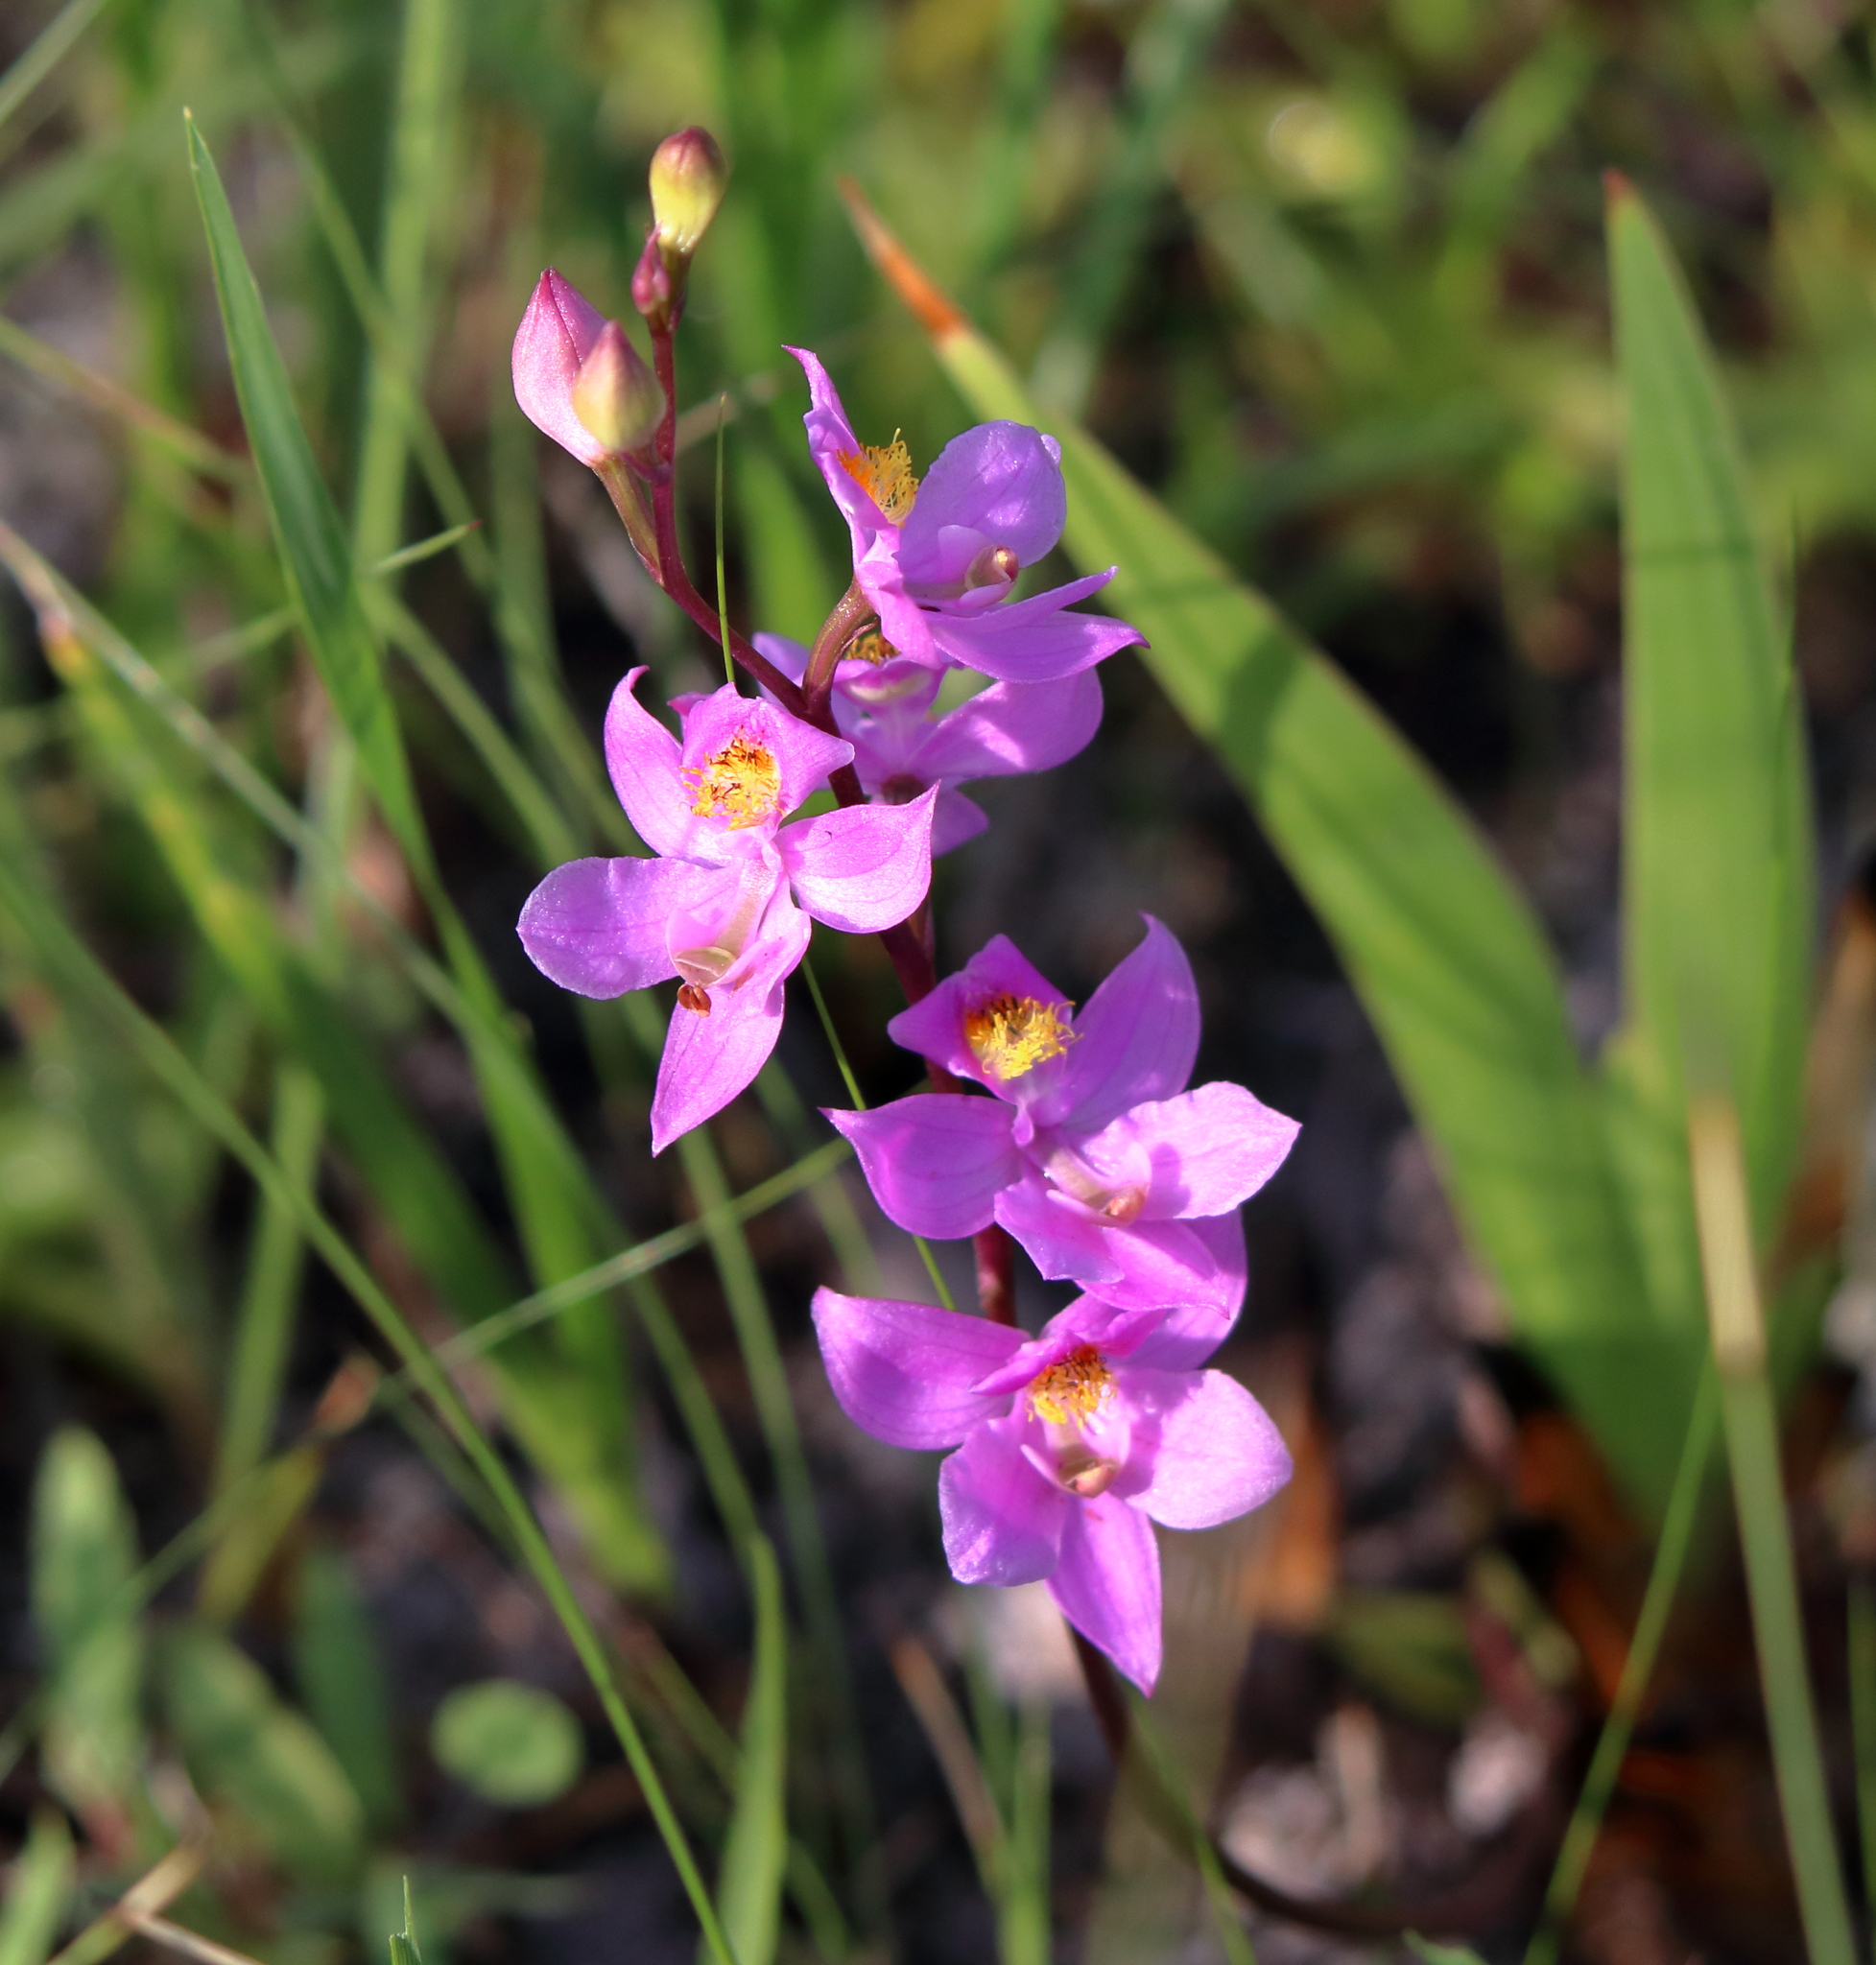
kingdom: Plantae
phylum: Tracheophyta
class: Liliopsida
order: Asparagales
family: Orchidaceae
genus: Calopogon
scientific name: Calopogon multiflorus
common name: Many-flowered grass-pink orchid
